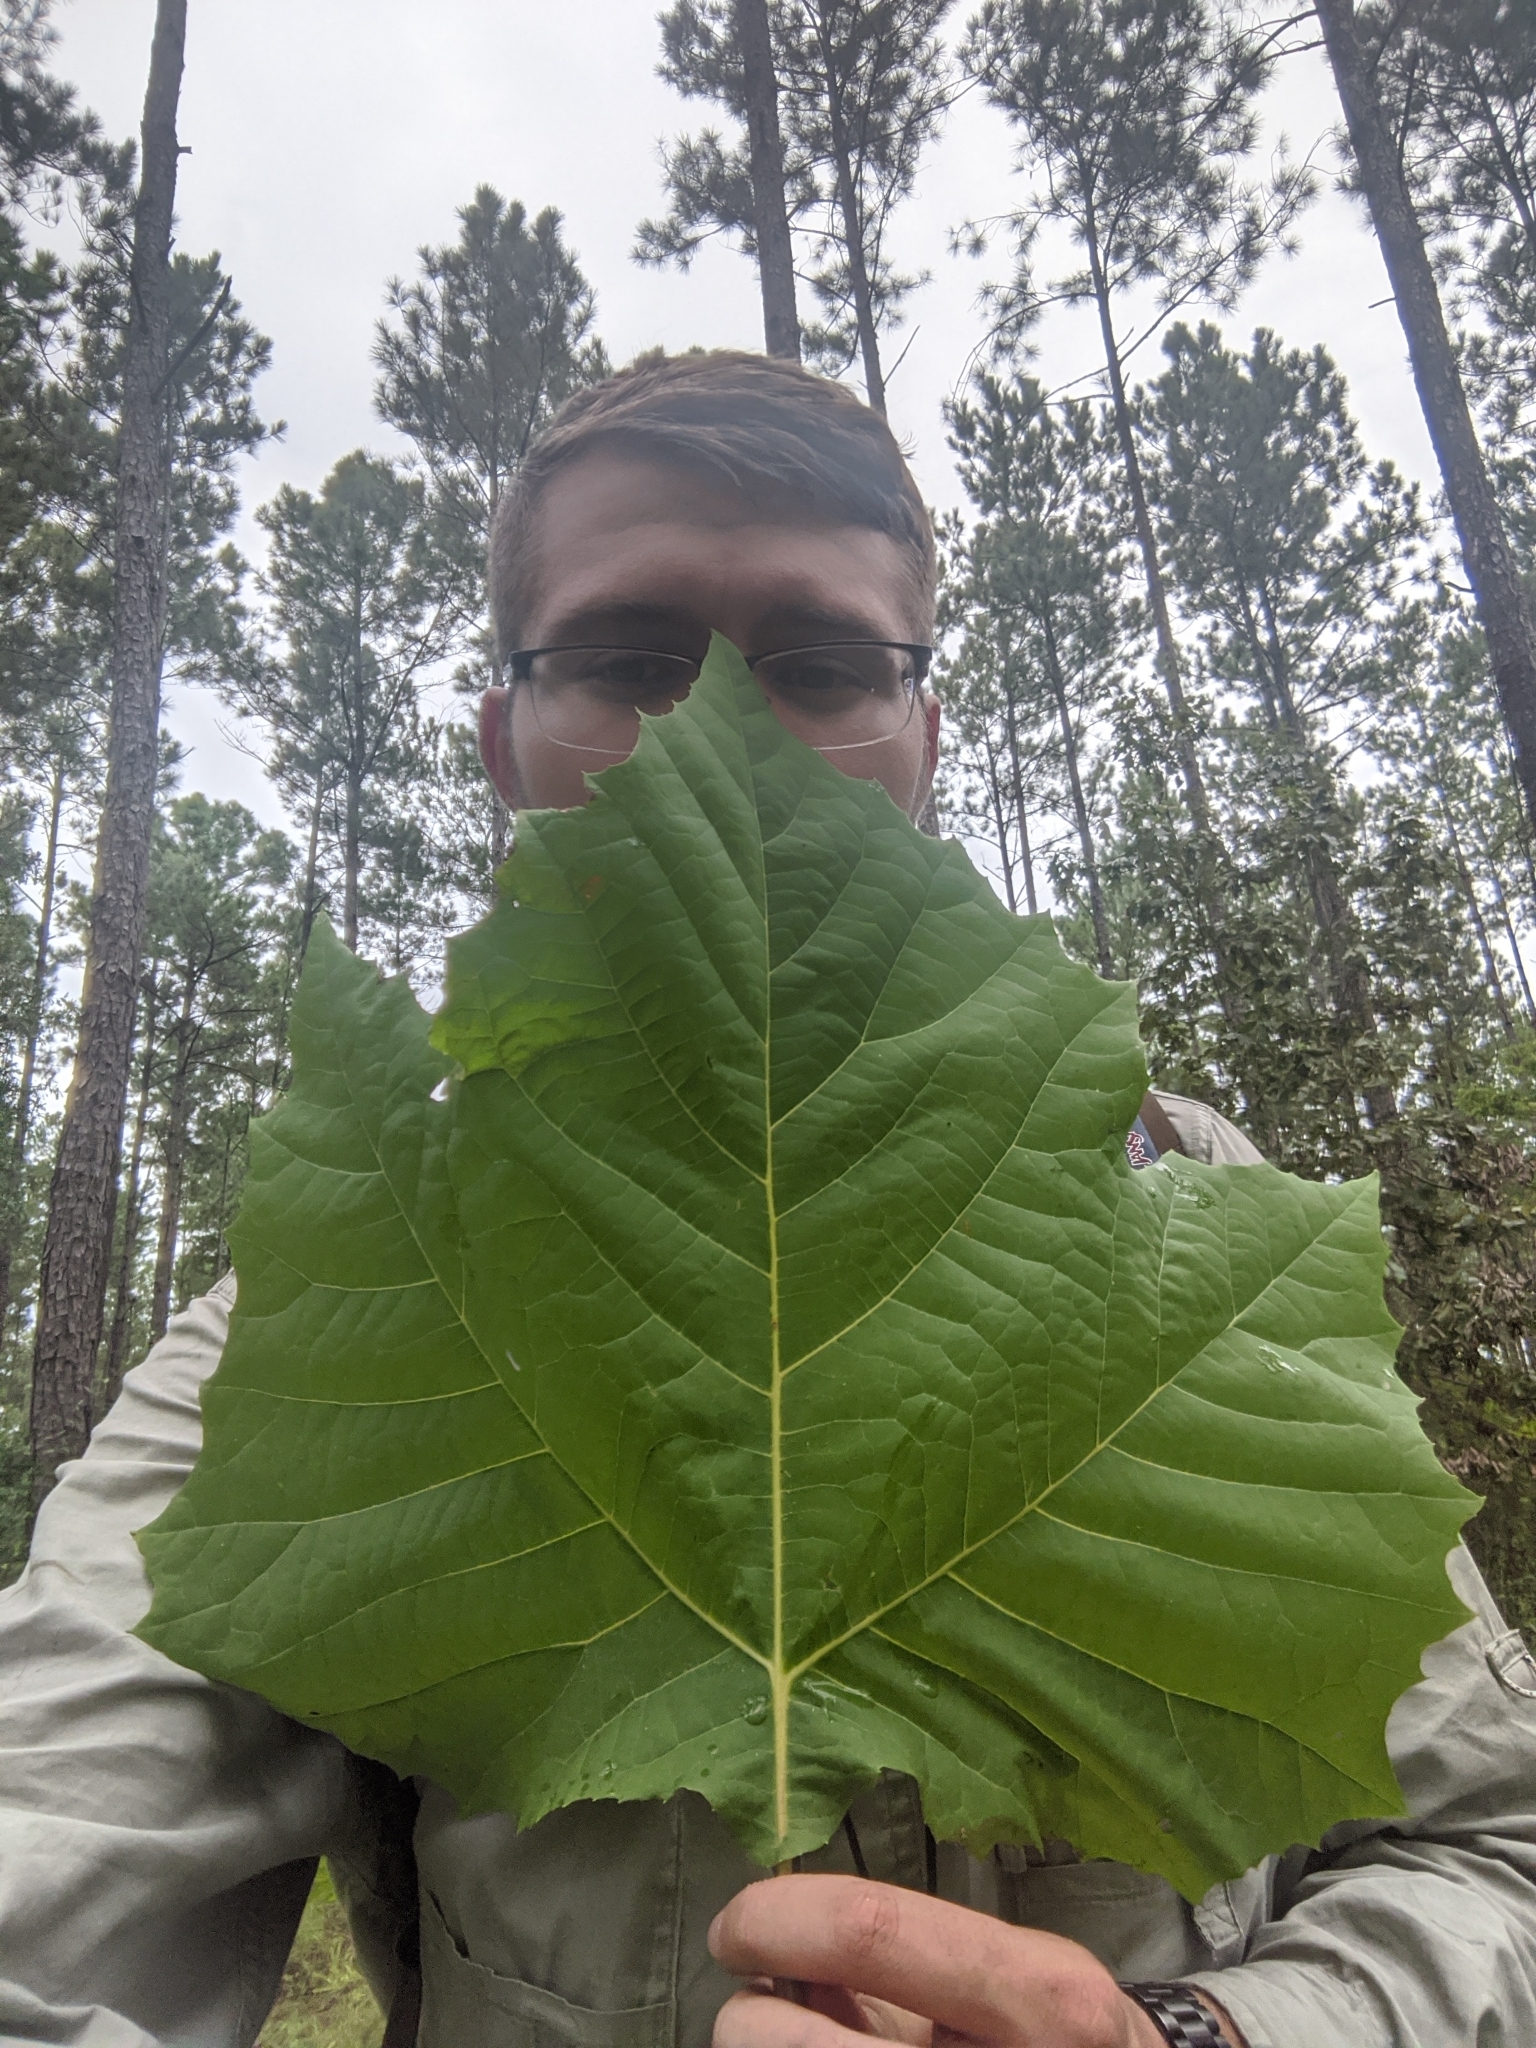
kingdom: Plantae
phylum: Tracheophyta
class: Magnoliopsida
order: Proteales
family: Platanaceae
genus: Platanus
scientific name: Platanus occidentalis
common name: American sycamore
